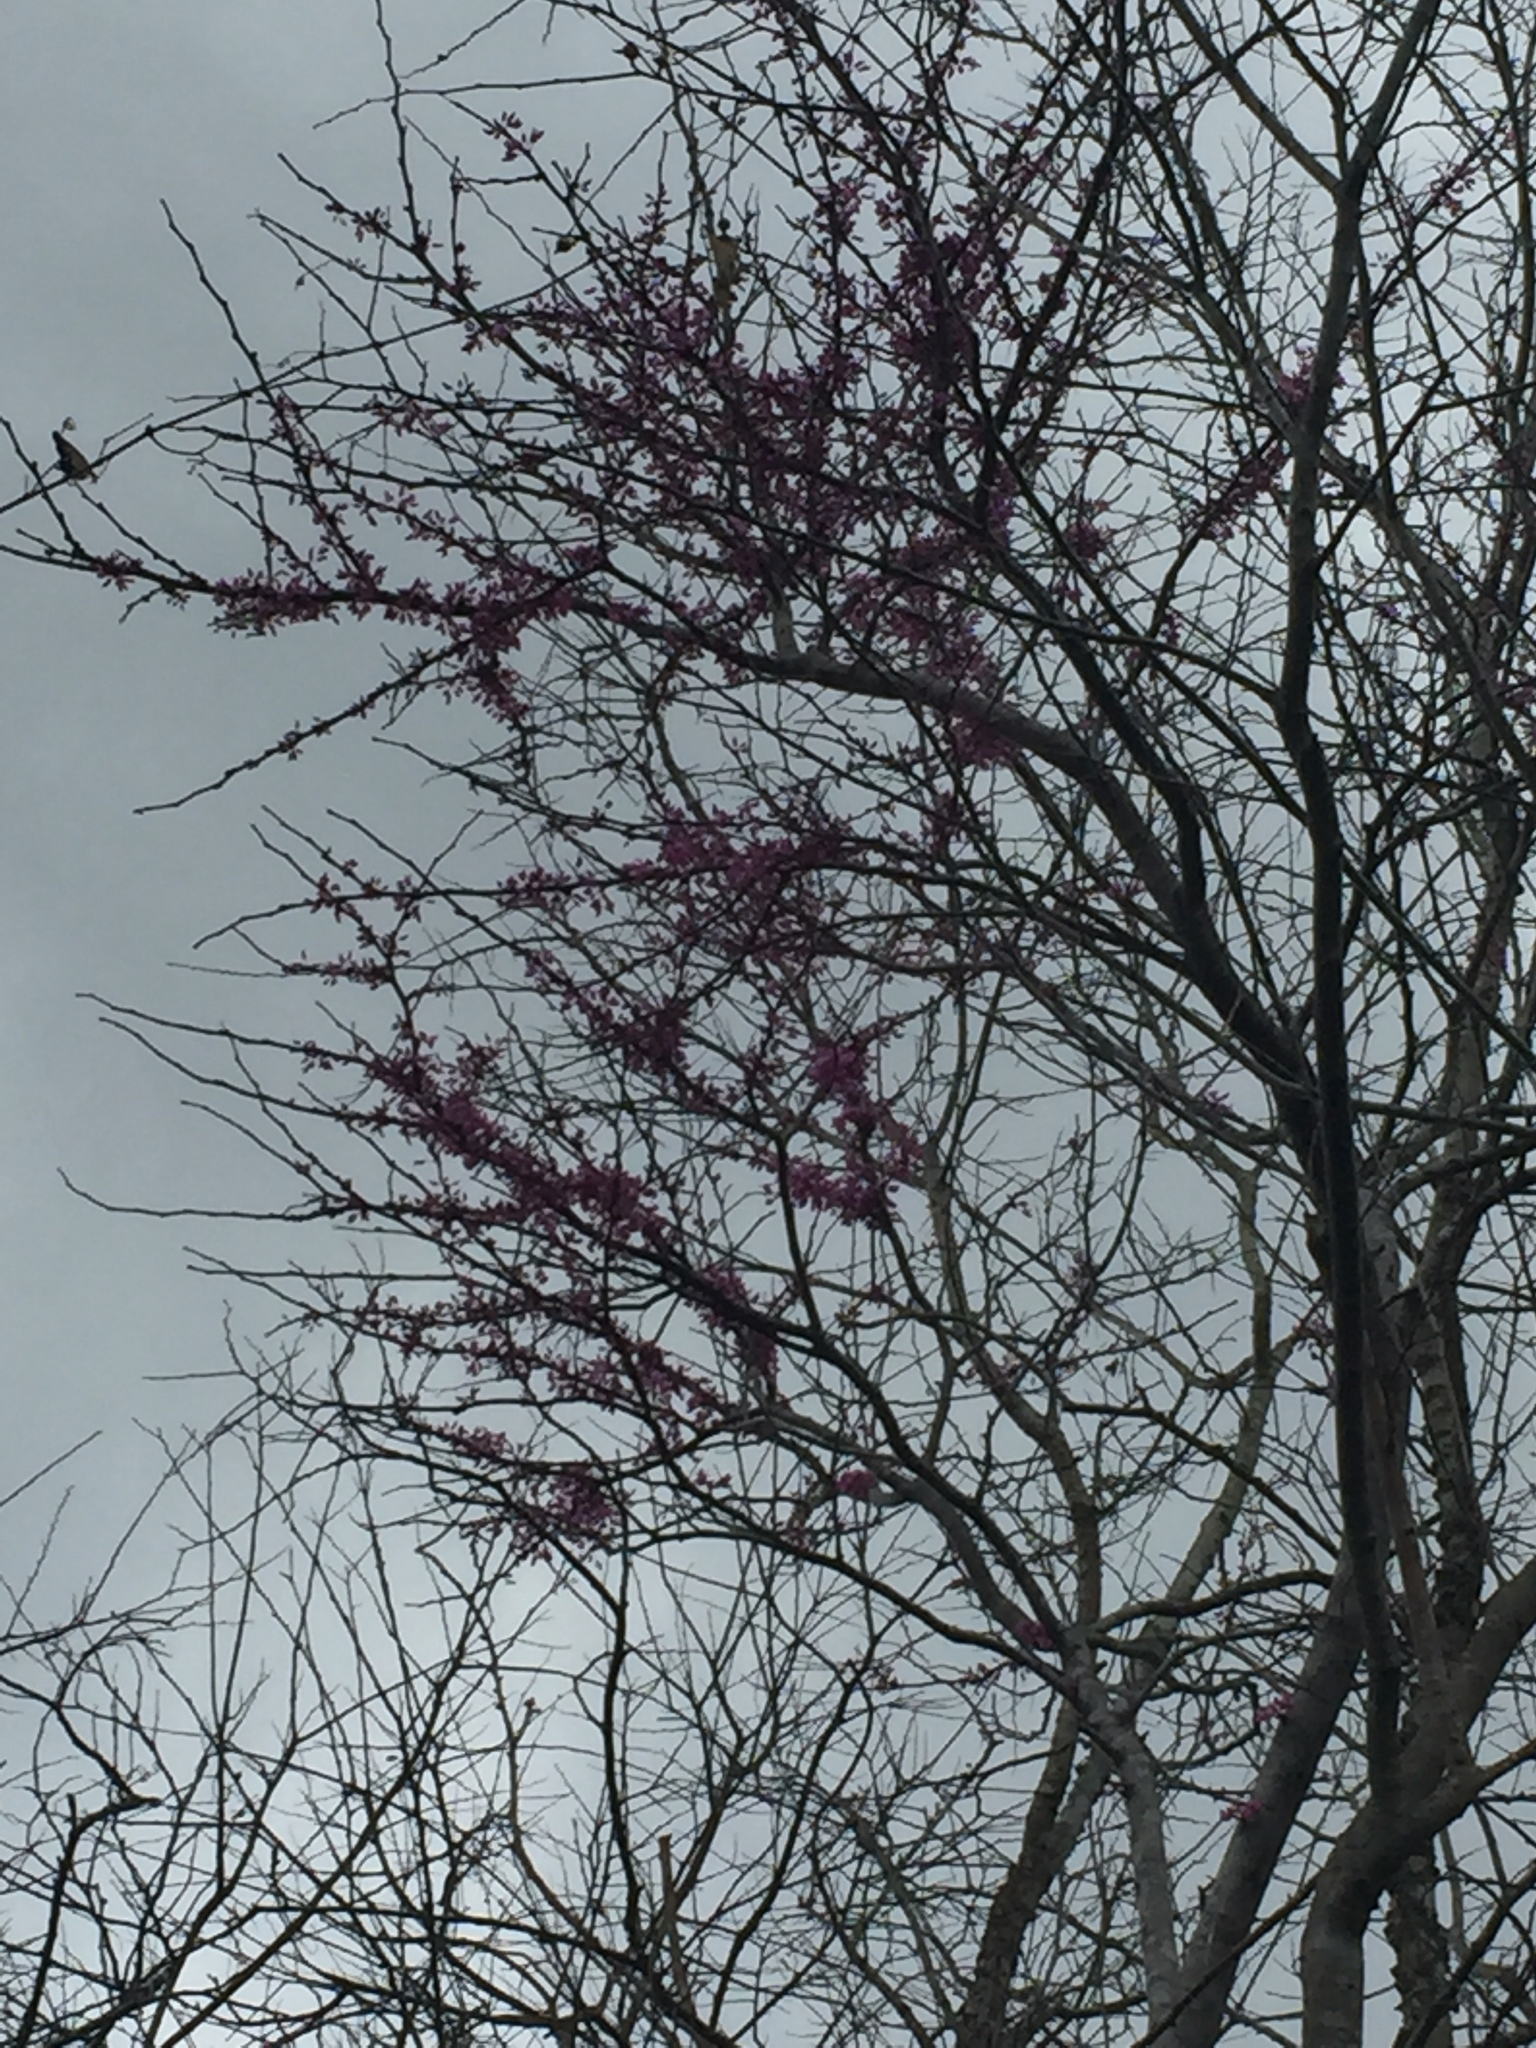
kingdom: Plantae
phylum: Tracheophyta
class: Magnoliopsida
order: Fabales
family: Fabaceae
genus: Cercis
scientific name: Cercis canadensis
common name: Eastern redbud
